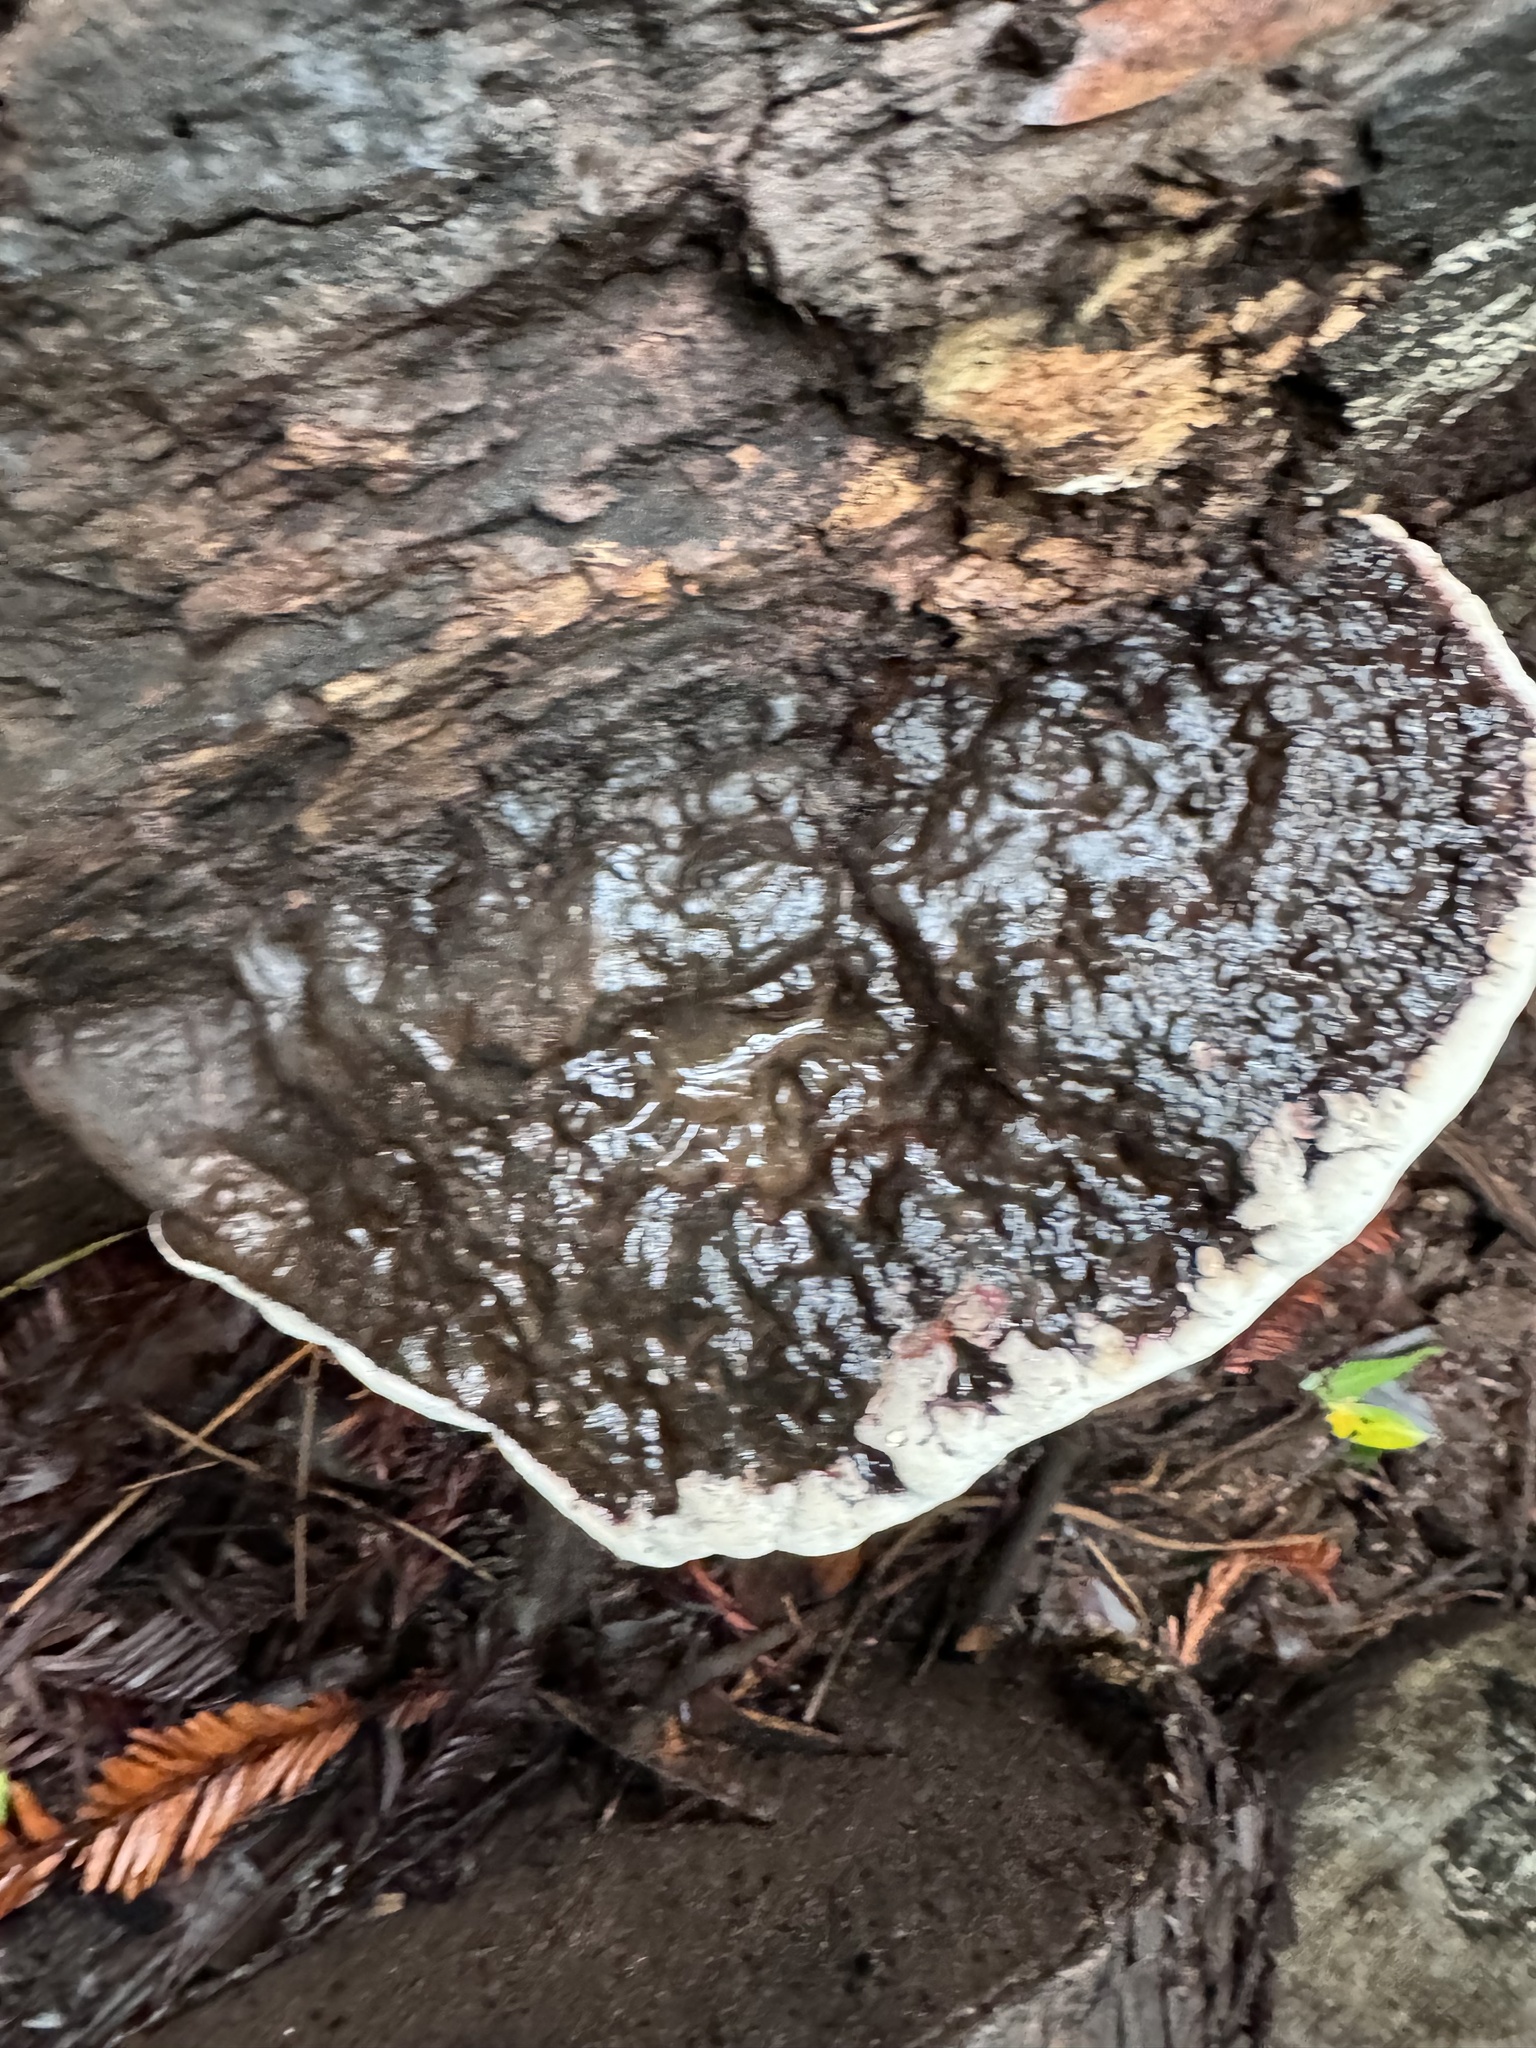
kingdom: Fungi
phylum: Basidiomycota
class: Agaricomycetes
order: Polyporales
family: Polyporaceae
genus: Ganoderma
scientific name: Ganoderma brownii
